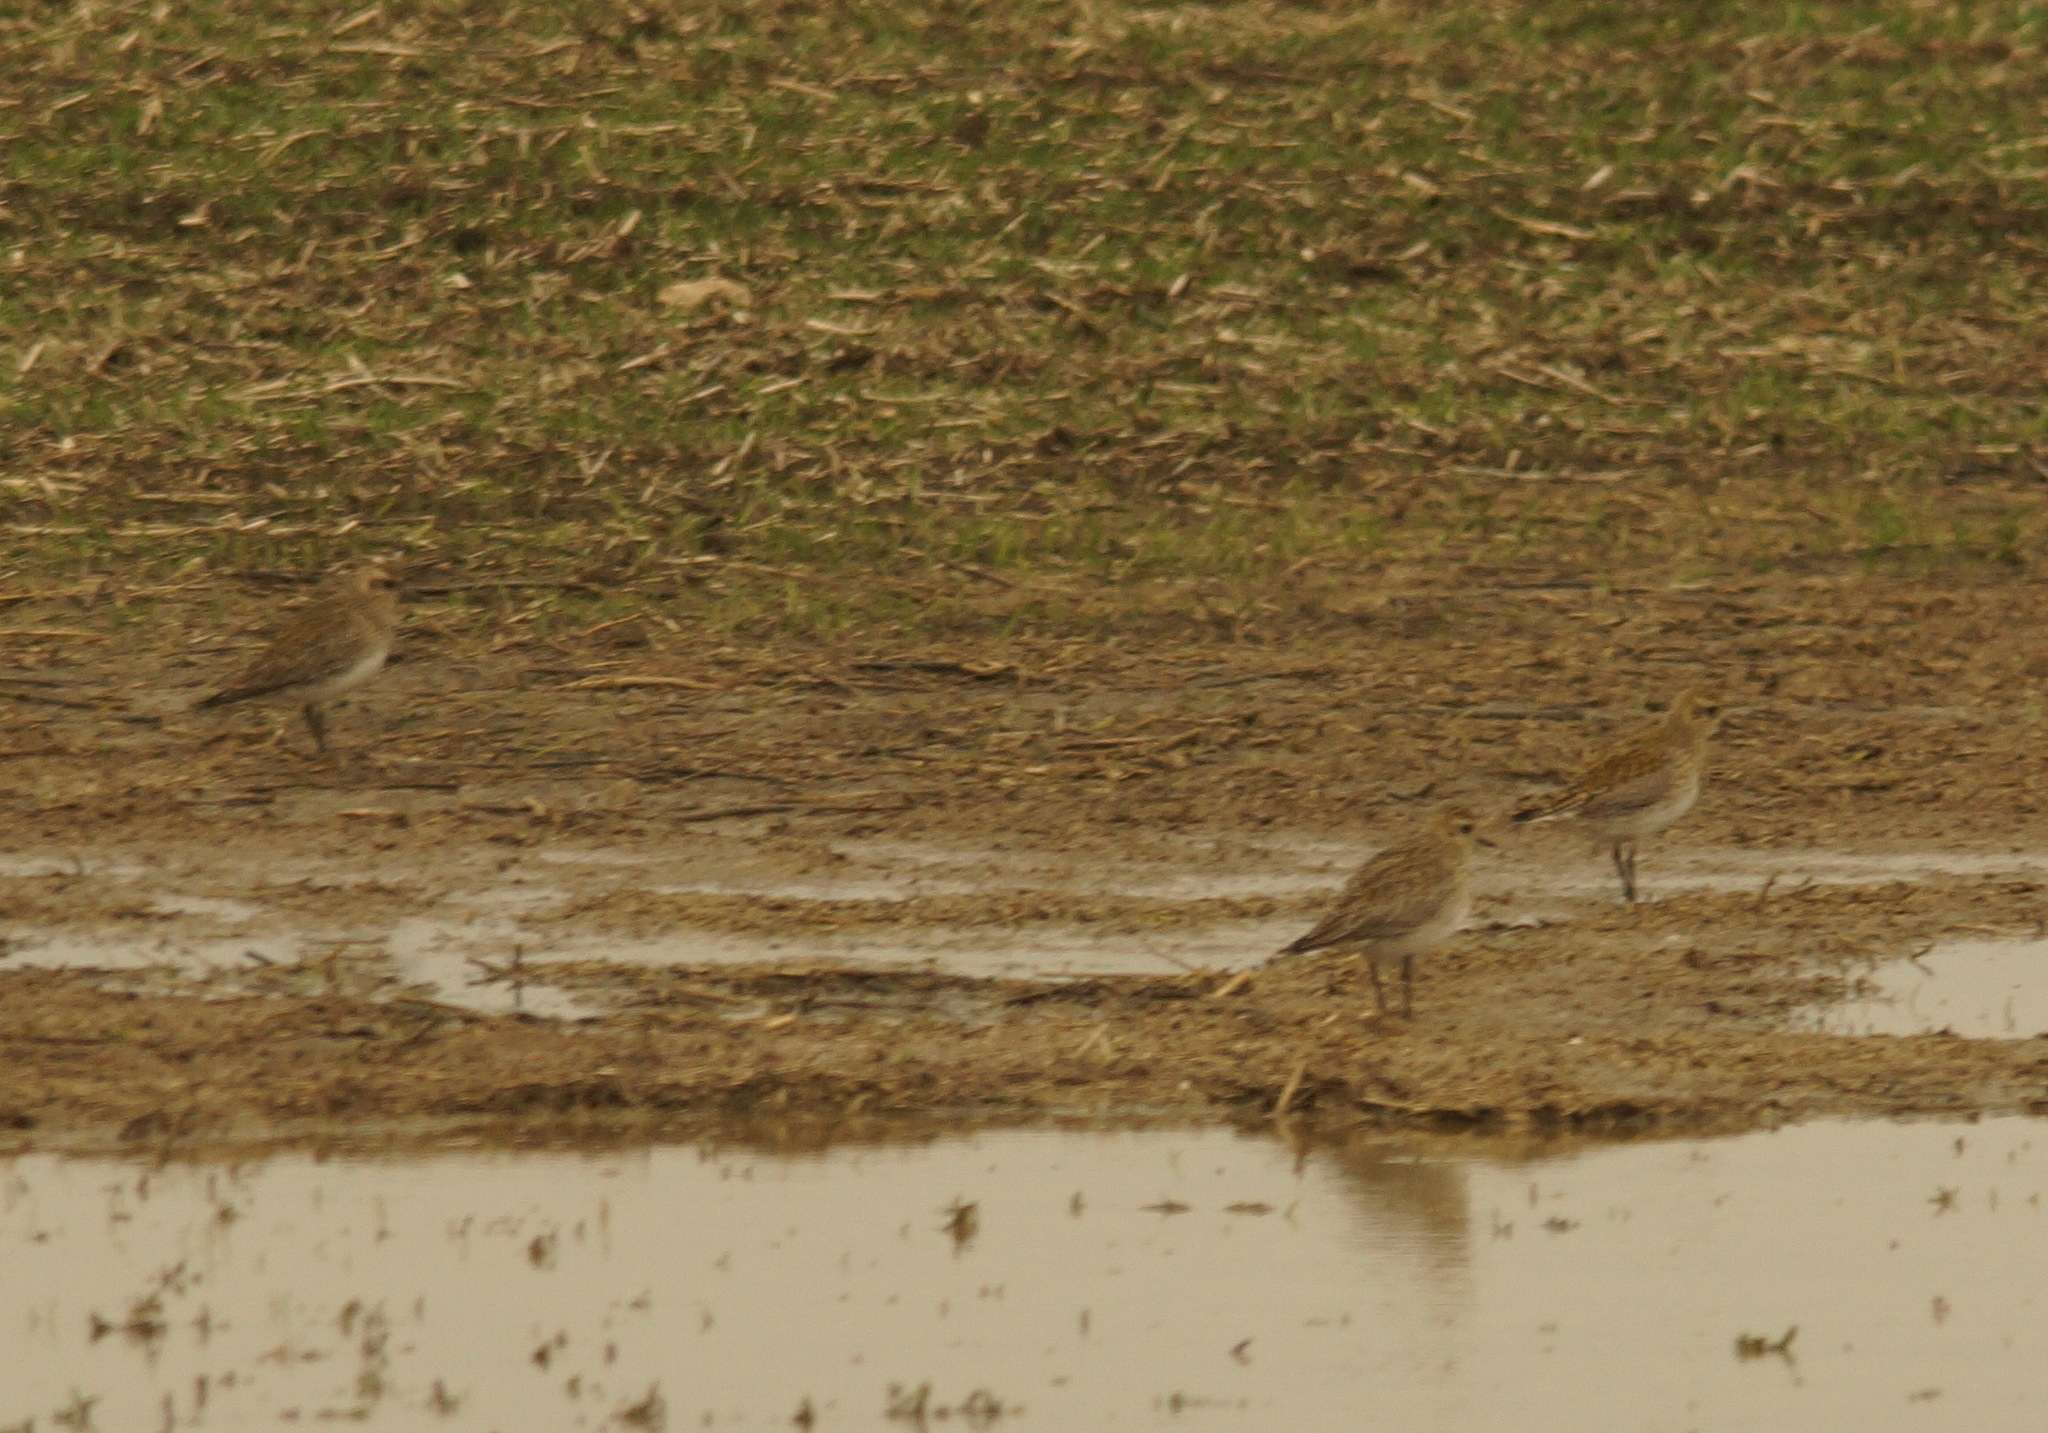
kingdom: Animalia
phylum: Chordata
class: Aves
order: Charadriiformes
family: Charadriidae
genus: Pluvialis
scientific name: Pluvialis apricaria
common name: European golden plover
